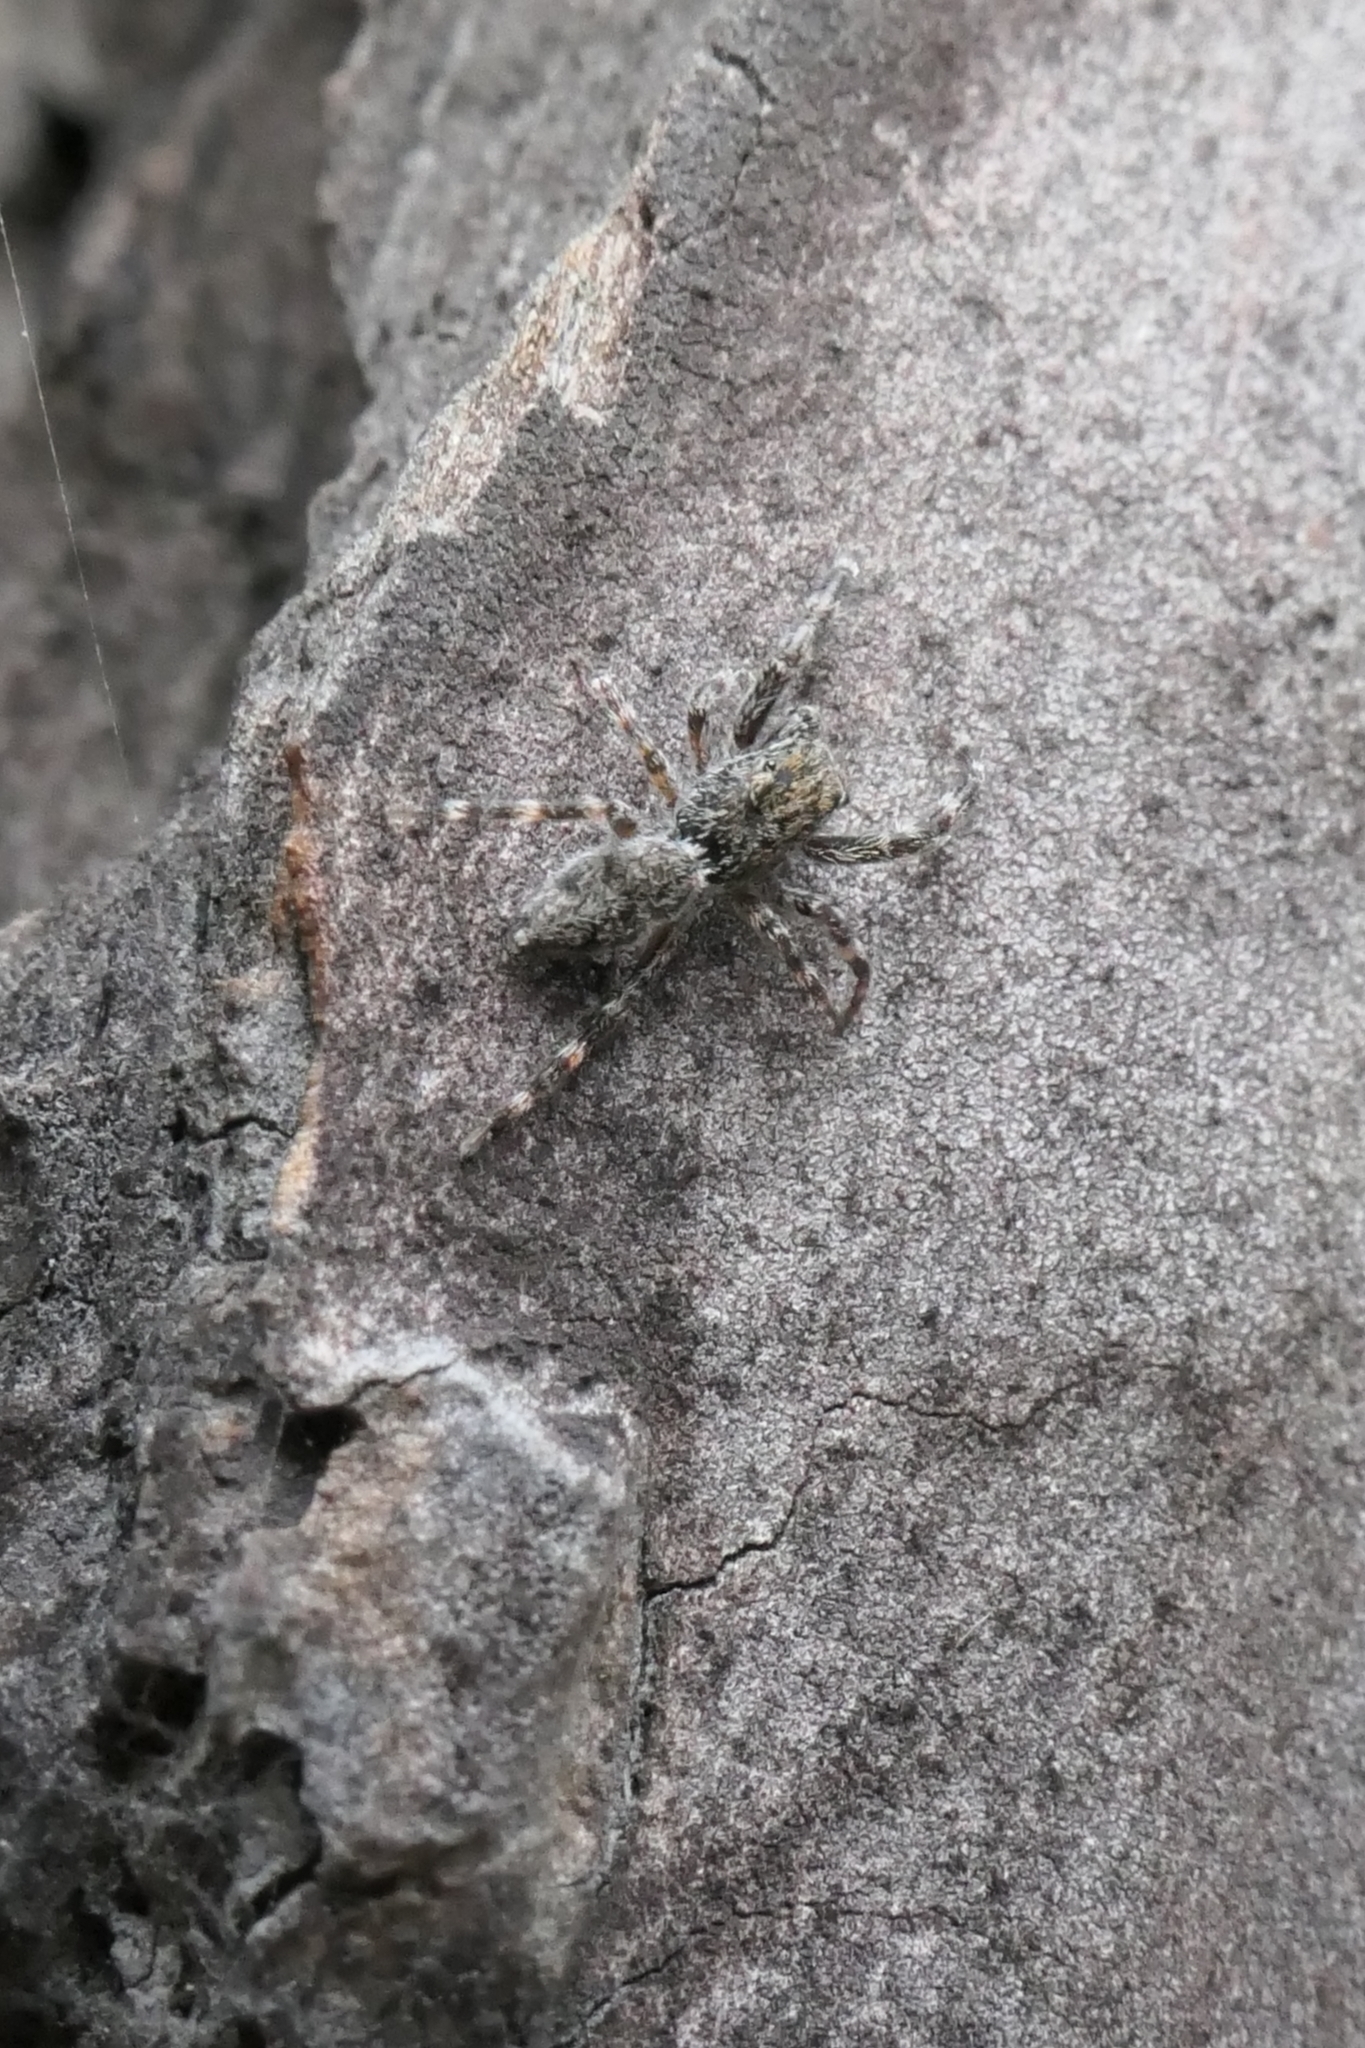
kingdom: Animalia
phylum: Arthropoda
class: Arachnida
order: Araneae
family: Salticidae
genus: Adoxotoma
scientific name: Adoxotoma forsteri
